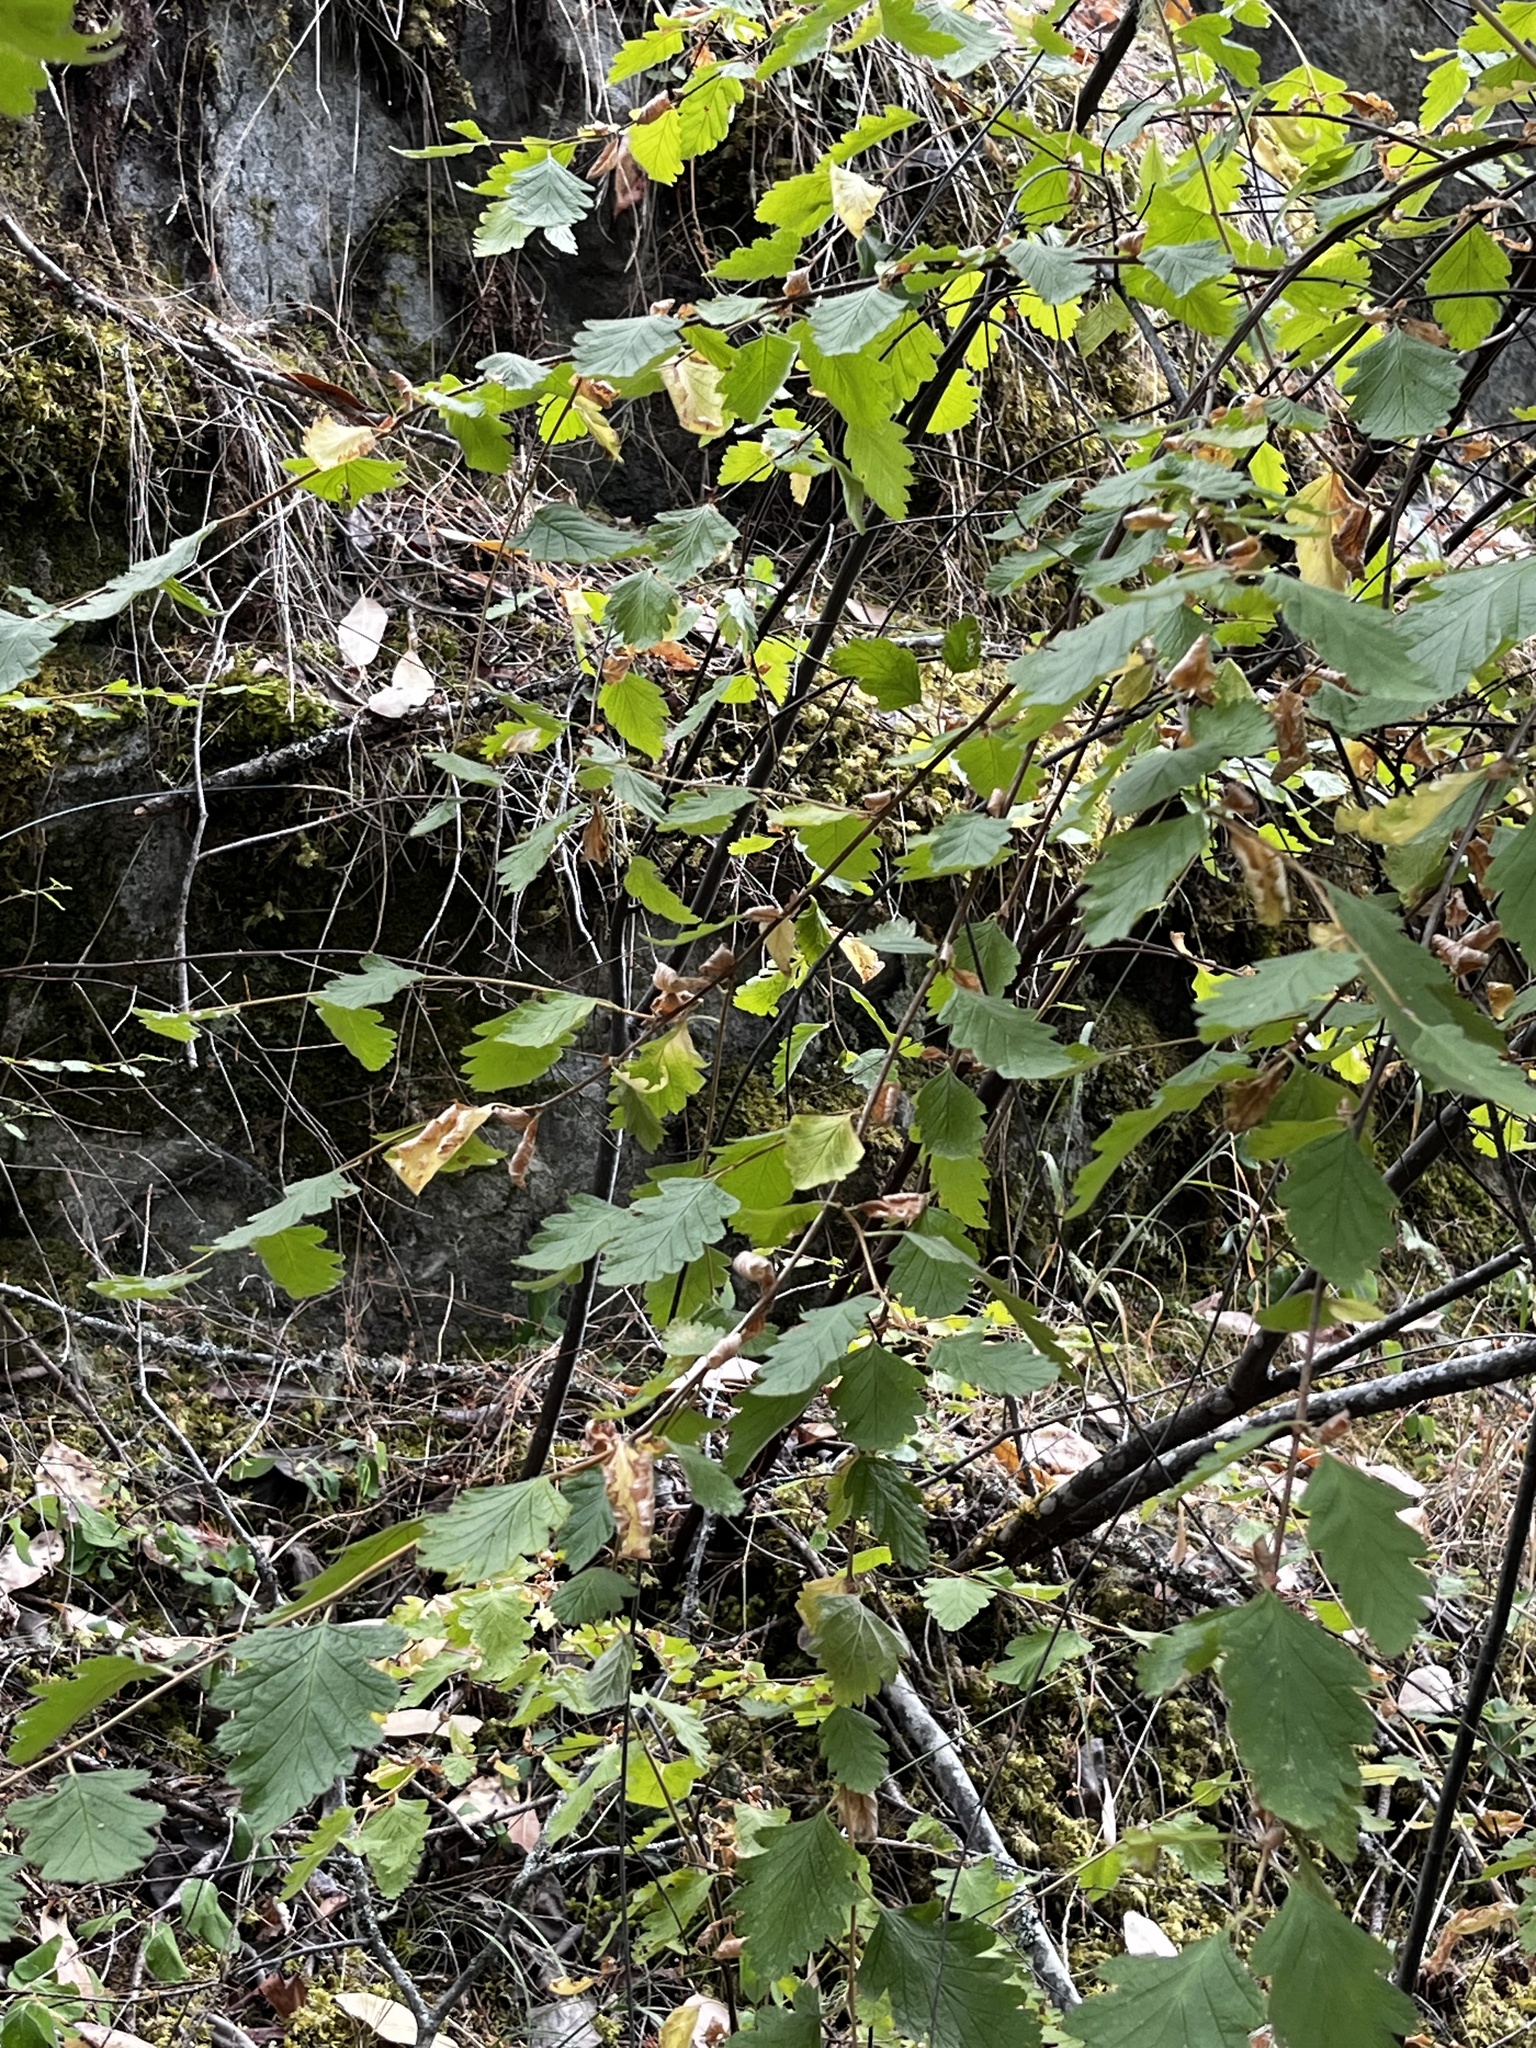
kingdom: Plantae
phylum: Tracheophyta
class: Magnoliopsida
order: Rosales
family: Rosaceae
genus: Holodiscus
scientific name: Holodiscus discolor
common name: Oceanspray
